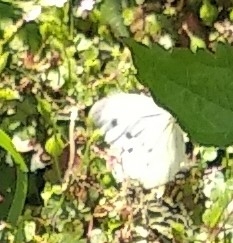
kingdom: Animalia
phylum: Arthropoda
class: Insecta
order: Lepidoptera
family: Pieridae
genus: Pieris
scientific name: Pieris napi
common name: Green-veined white
